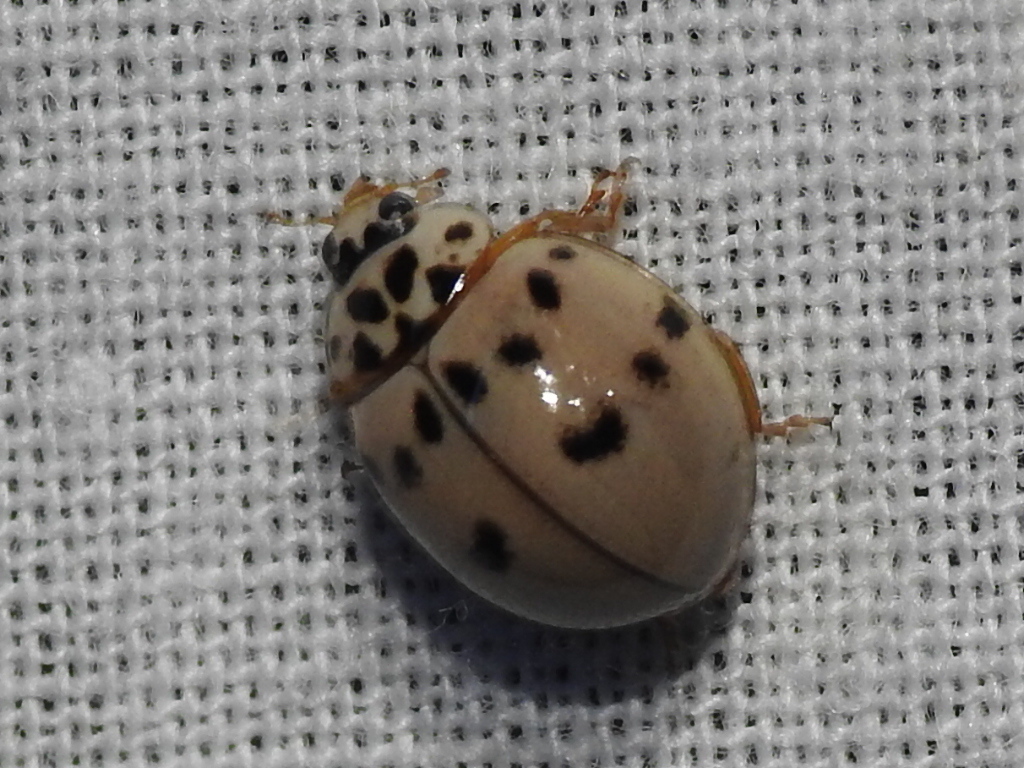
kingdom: Animalia
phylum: Arthropoda
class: Insecta
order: Coleoptera
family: Coccinellidae
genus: Olla
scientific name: Olla v-nigrum
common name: Ashy gray lady beetle
